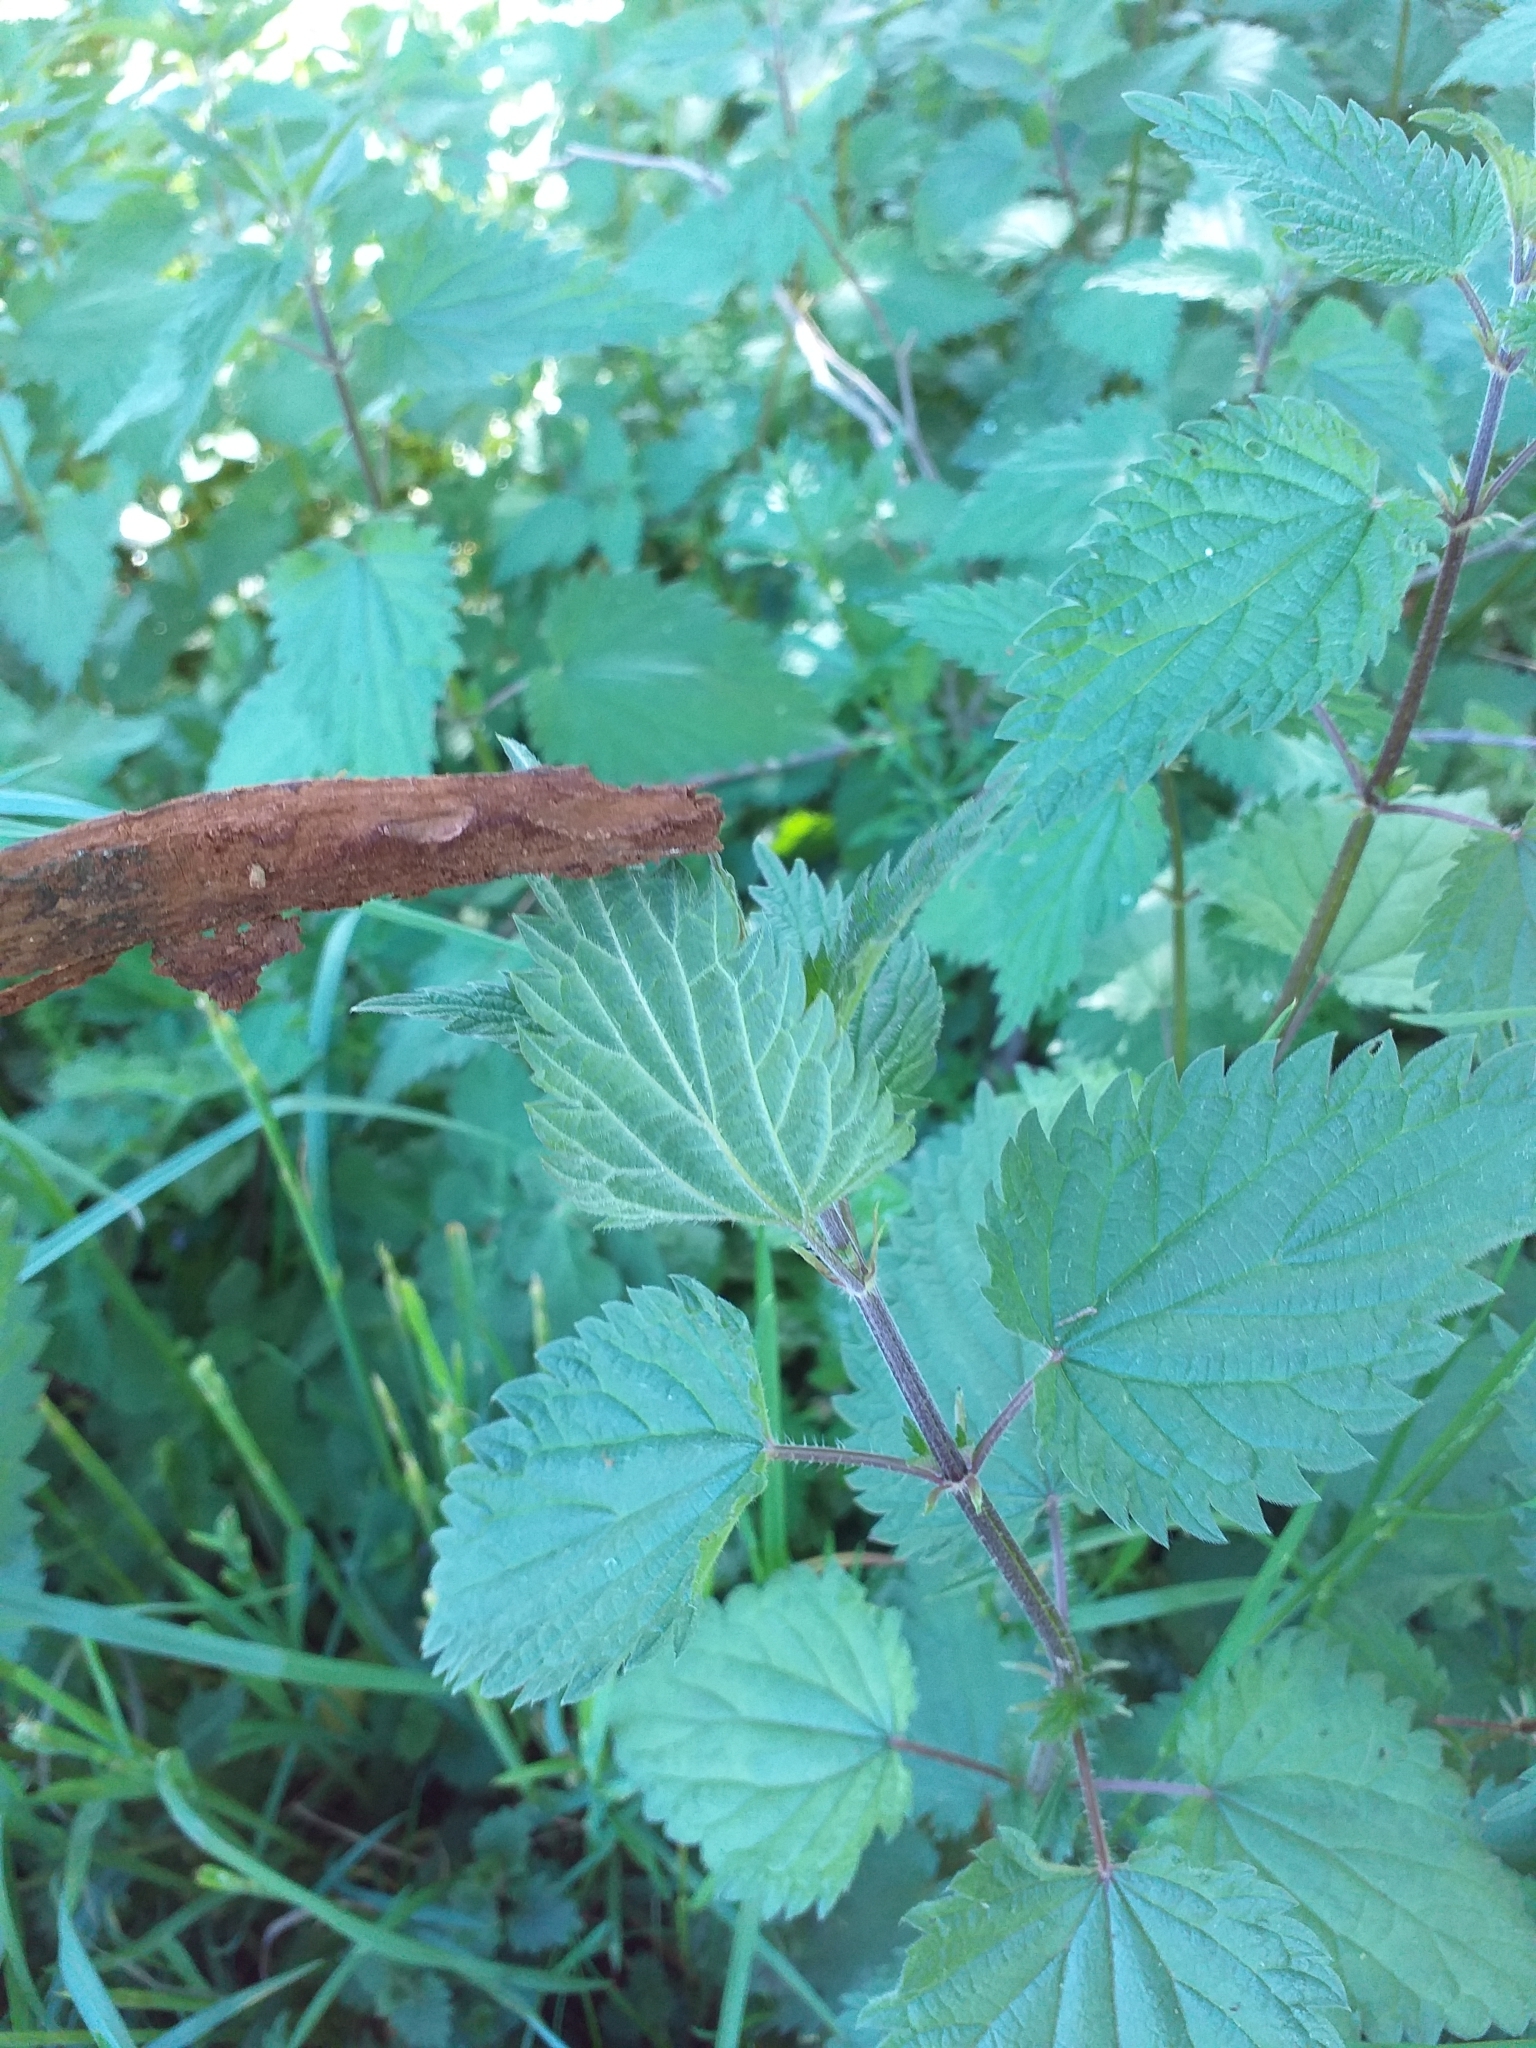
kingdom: Plantae
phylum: Tracheophyta
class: Magnoliopsida
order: Rosales
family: Urticaceae
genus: Urtica
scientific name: Urtica dioica
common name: Common nettle
